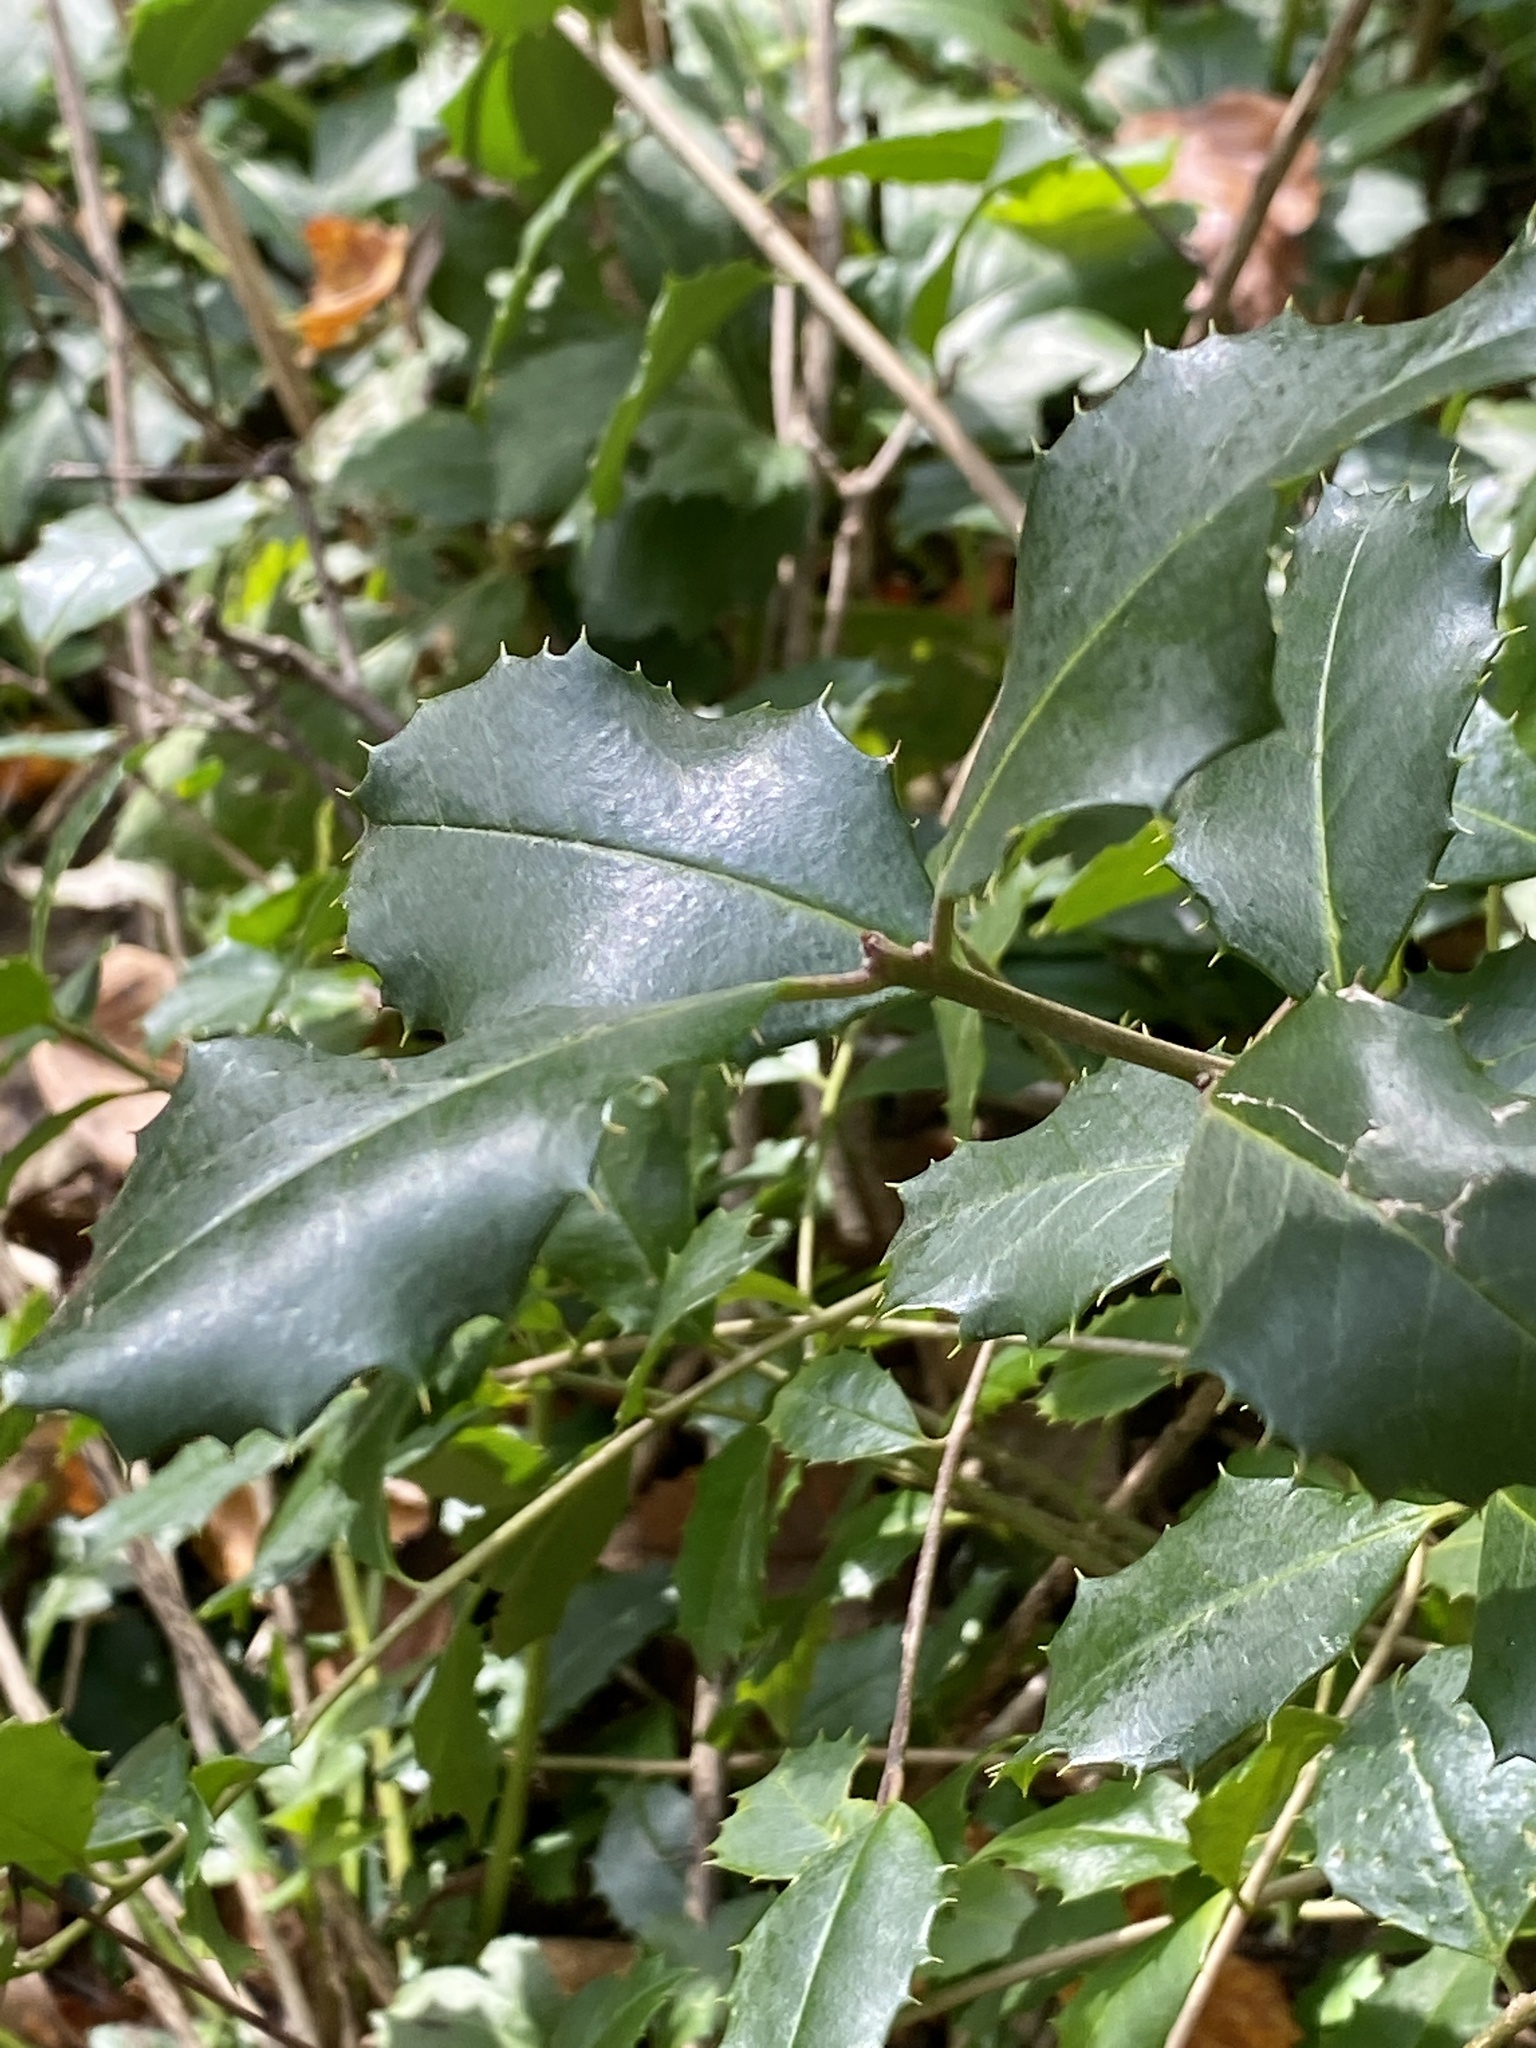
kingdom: Plantae
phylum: Tracheophyta
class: Magnoliopsida
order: Aquifoliales
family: Aquifoliaceae
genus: Ilex
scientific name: Ilex opaca
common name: American holly
